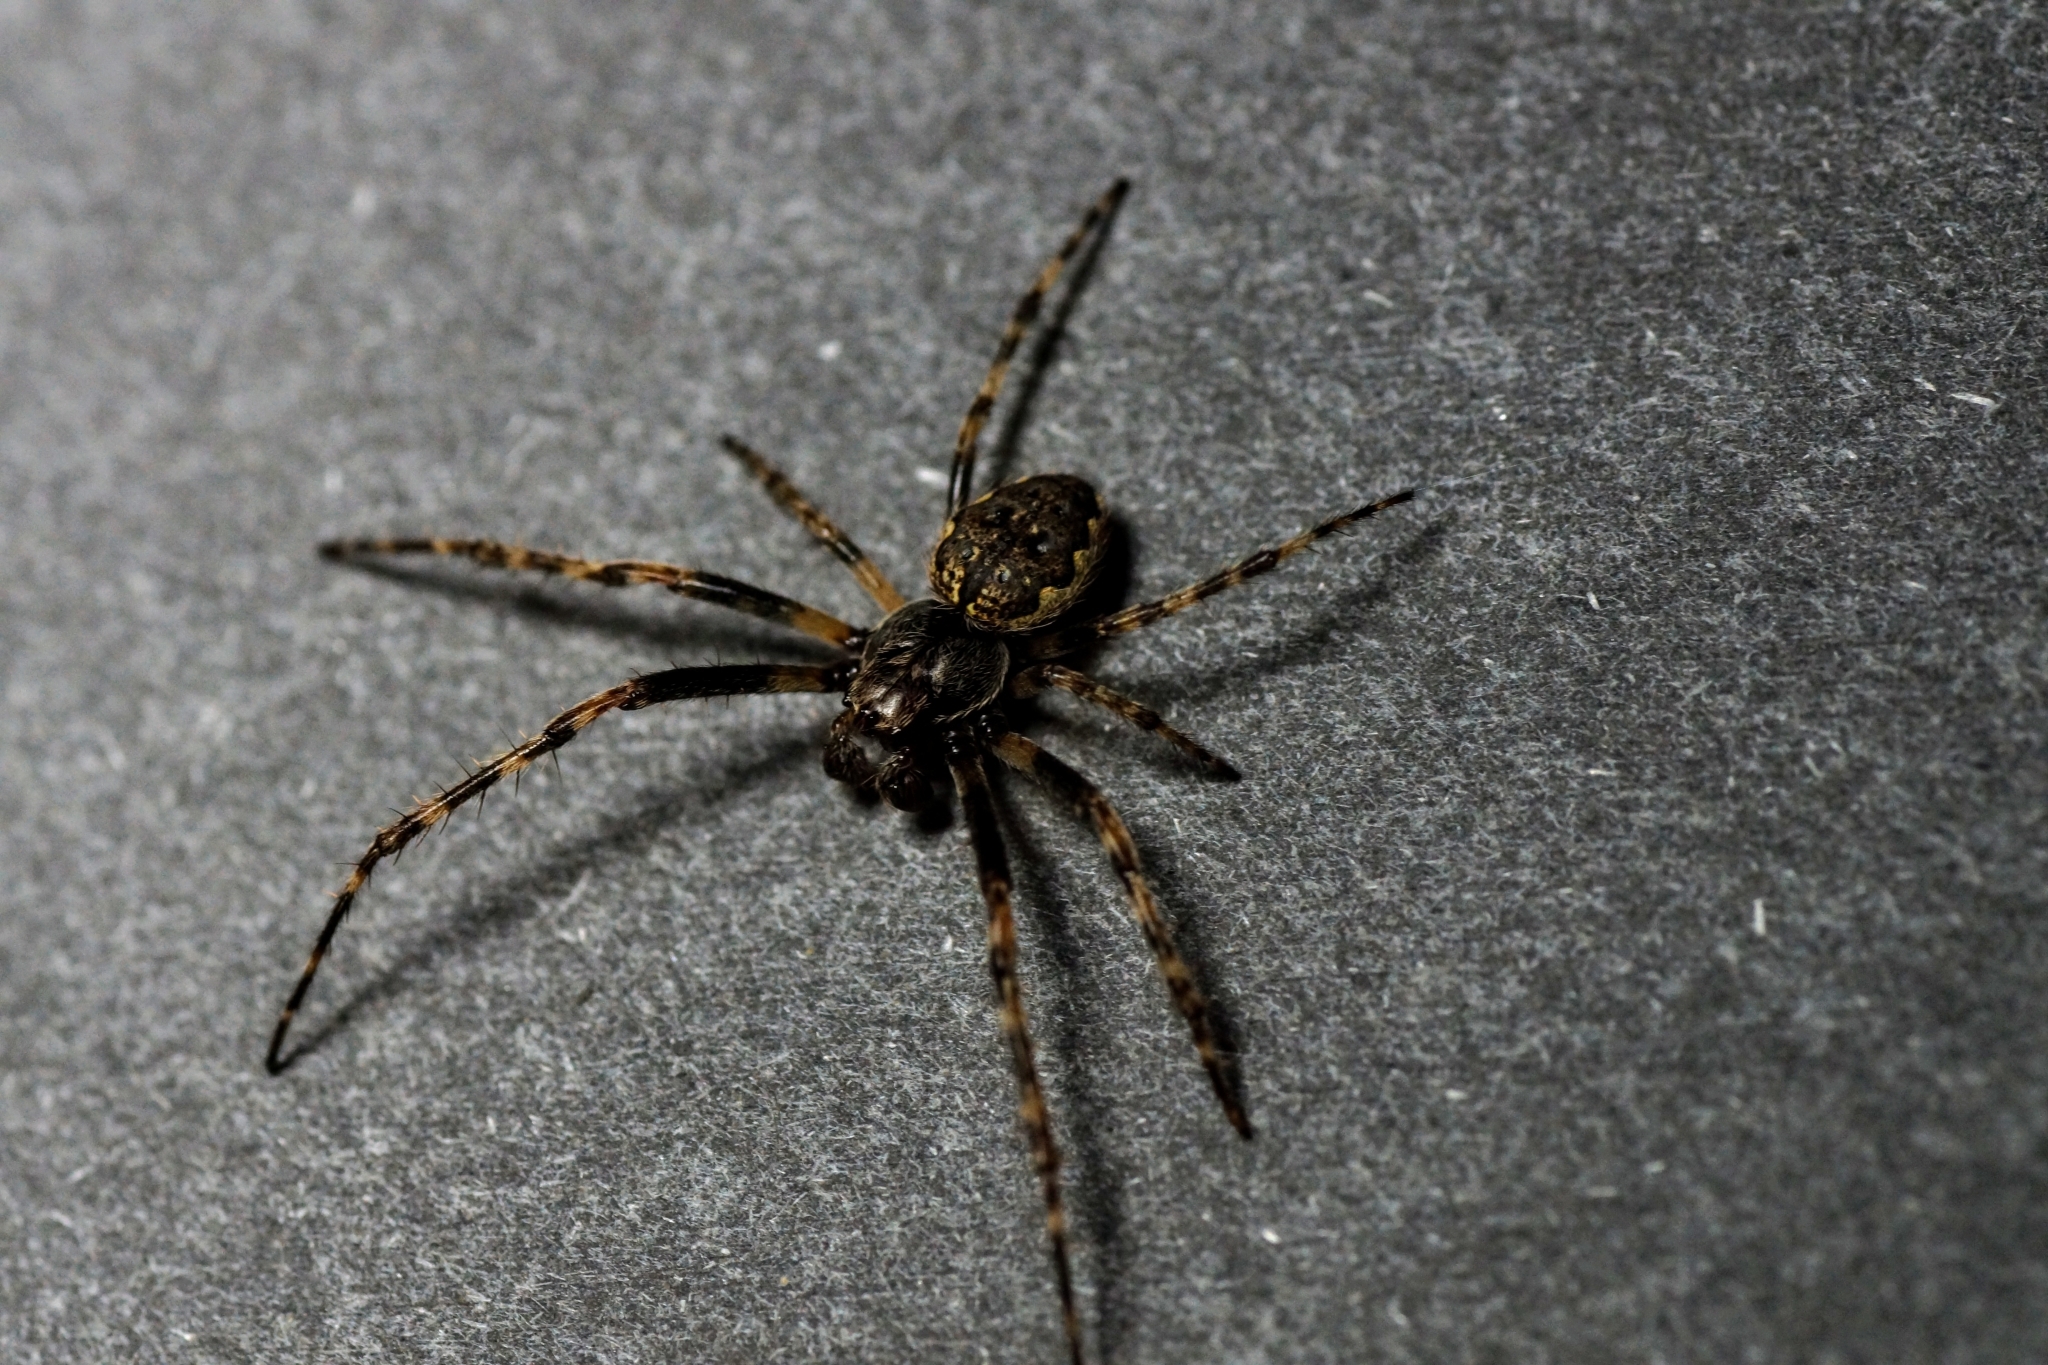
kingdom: Animalia
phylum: Arthropoda
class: Arachnida
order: Araneae
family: Araneidae
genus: Nuctenea
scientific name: Nuctenea umbratica
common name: Toad spider
